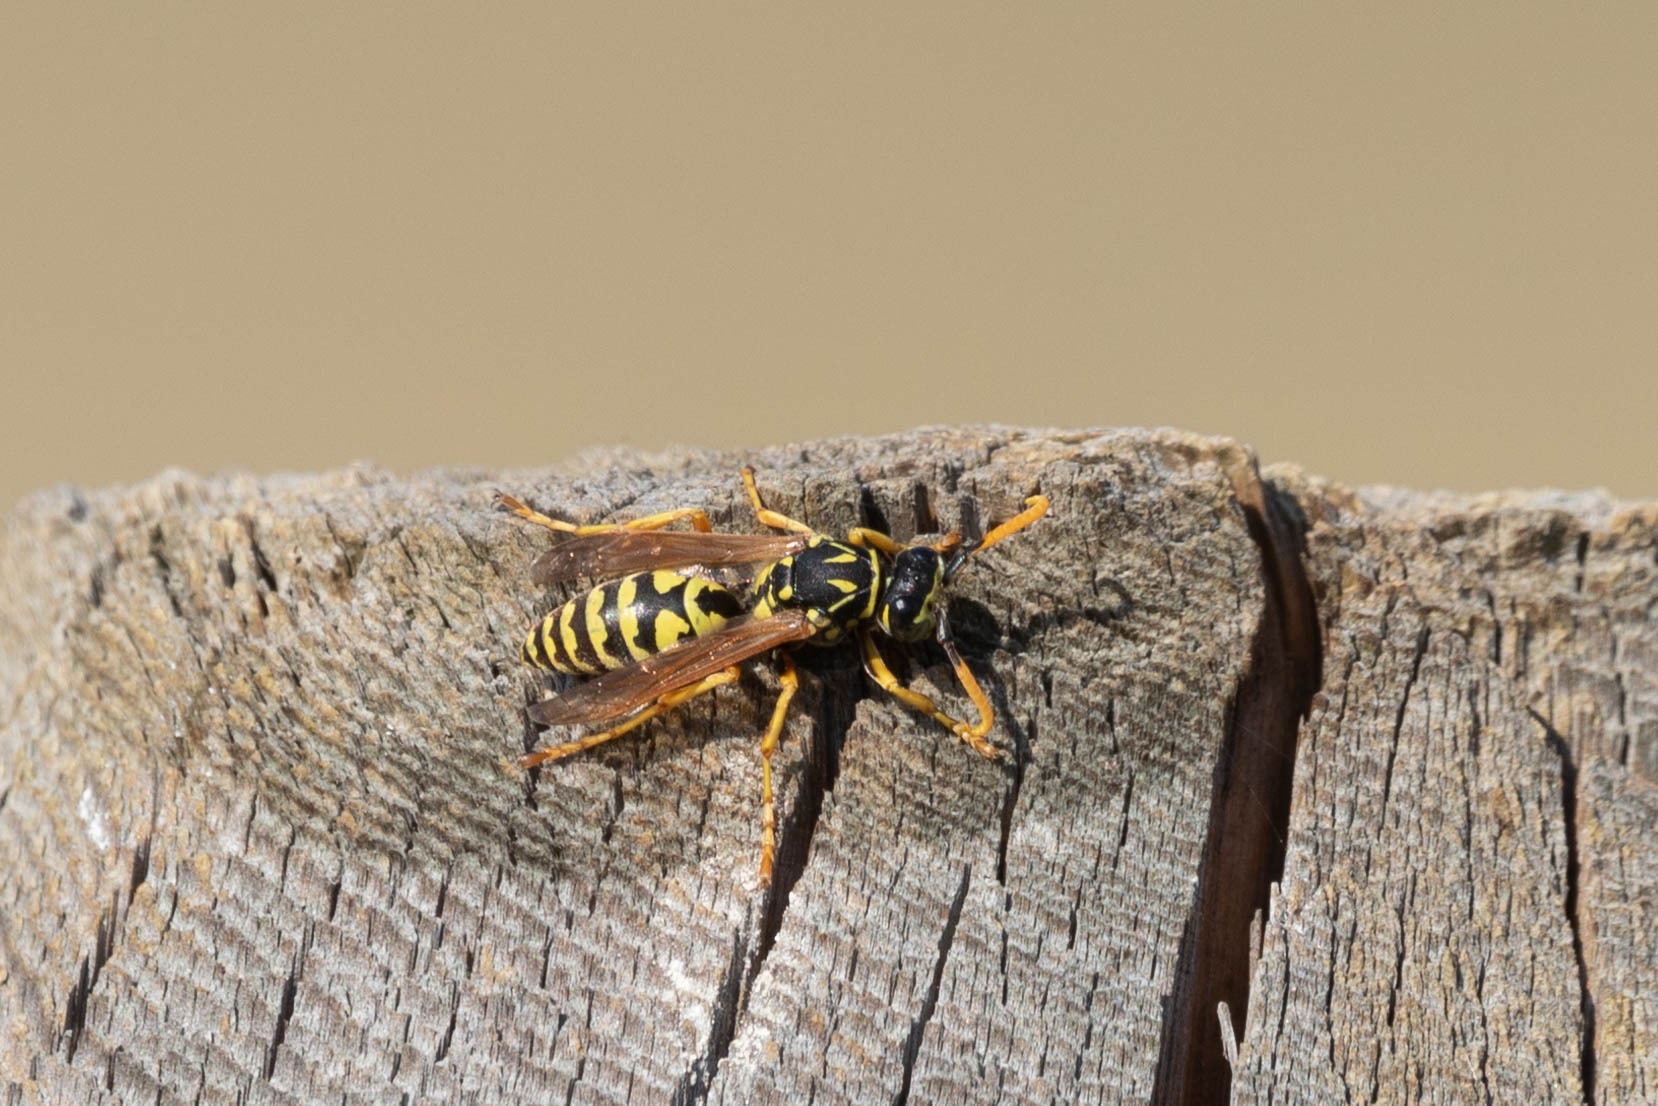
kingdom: Animalia
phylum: Arthropoda
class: Insecta
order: Hymenoptera
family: Eumenidae
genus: Polistes
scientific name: Polistes dominula
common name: Paper wasp
